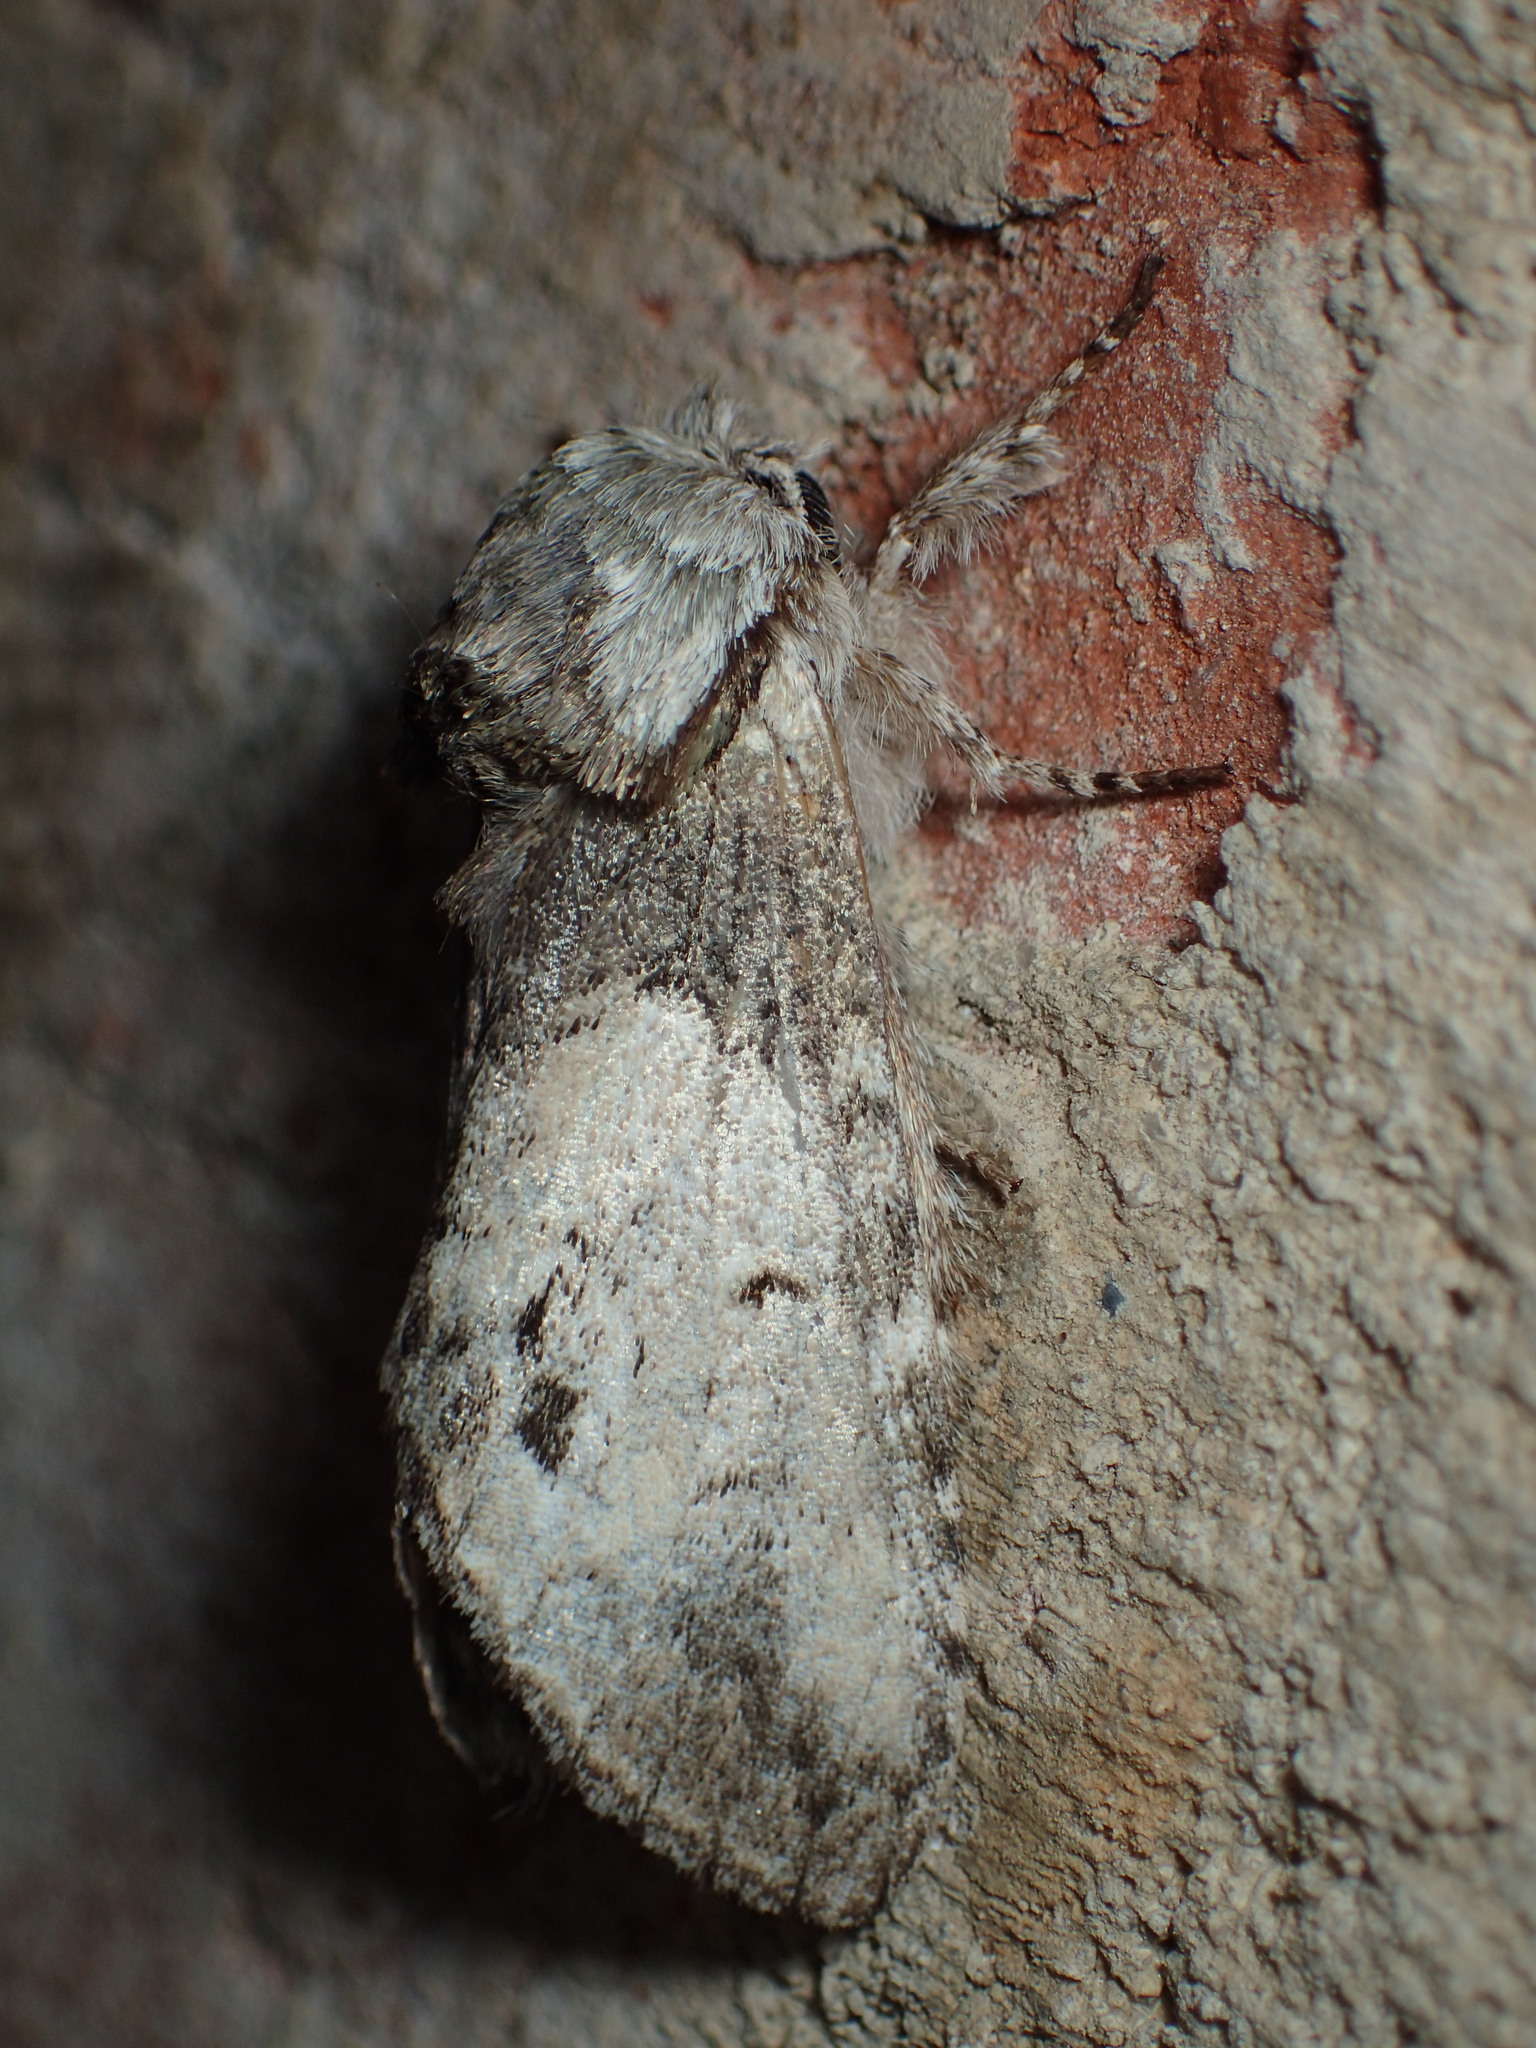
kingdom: Animalia
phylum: Arthropoda
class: Insecta
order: Lepidoptera
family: Notodontidae
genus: Macrurocampa
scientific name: Macrurocampa marthesia
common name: Mottled prominent
